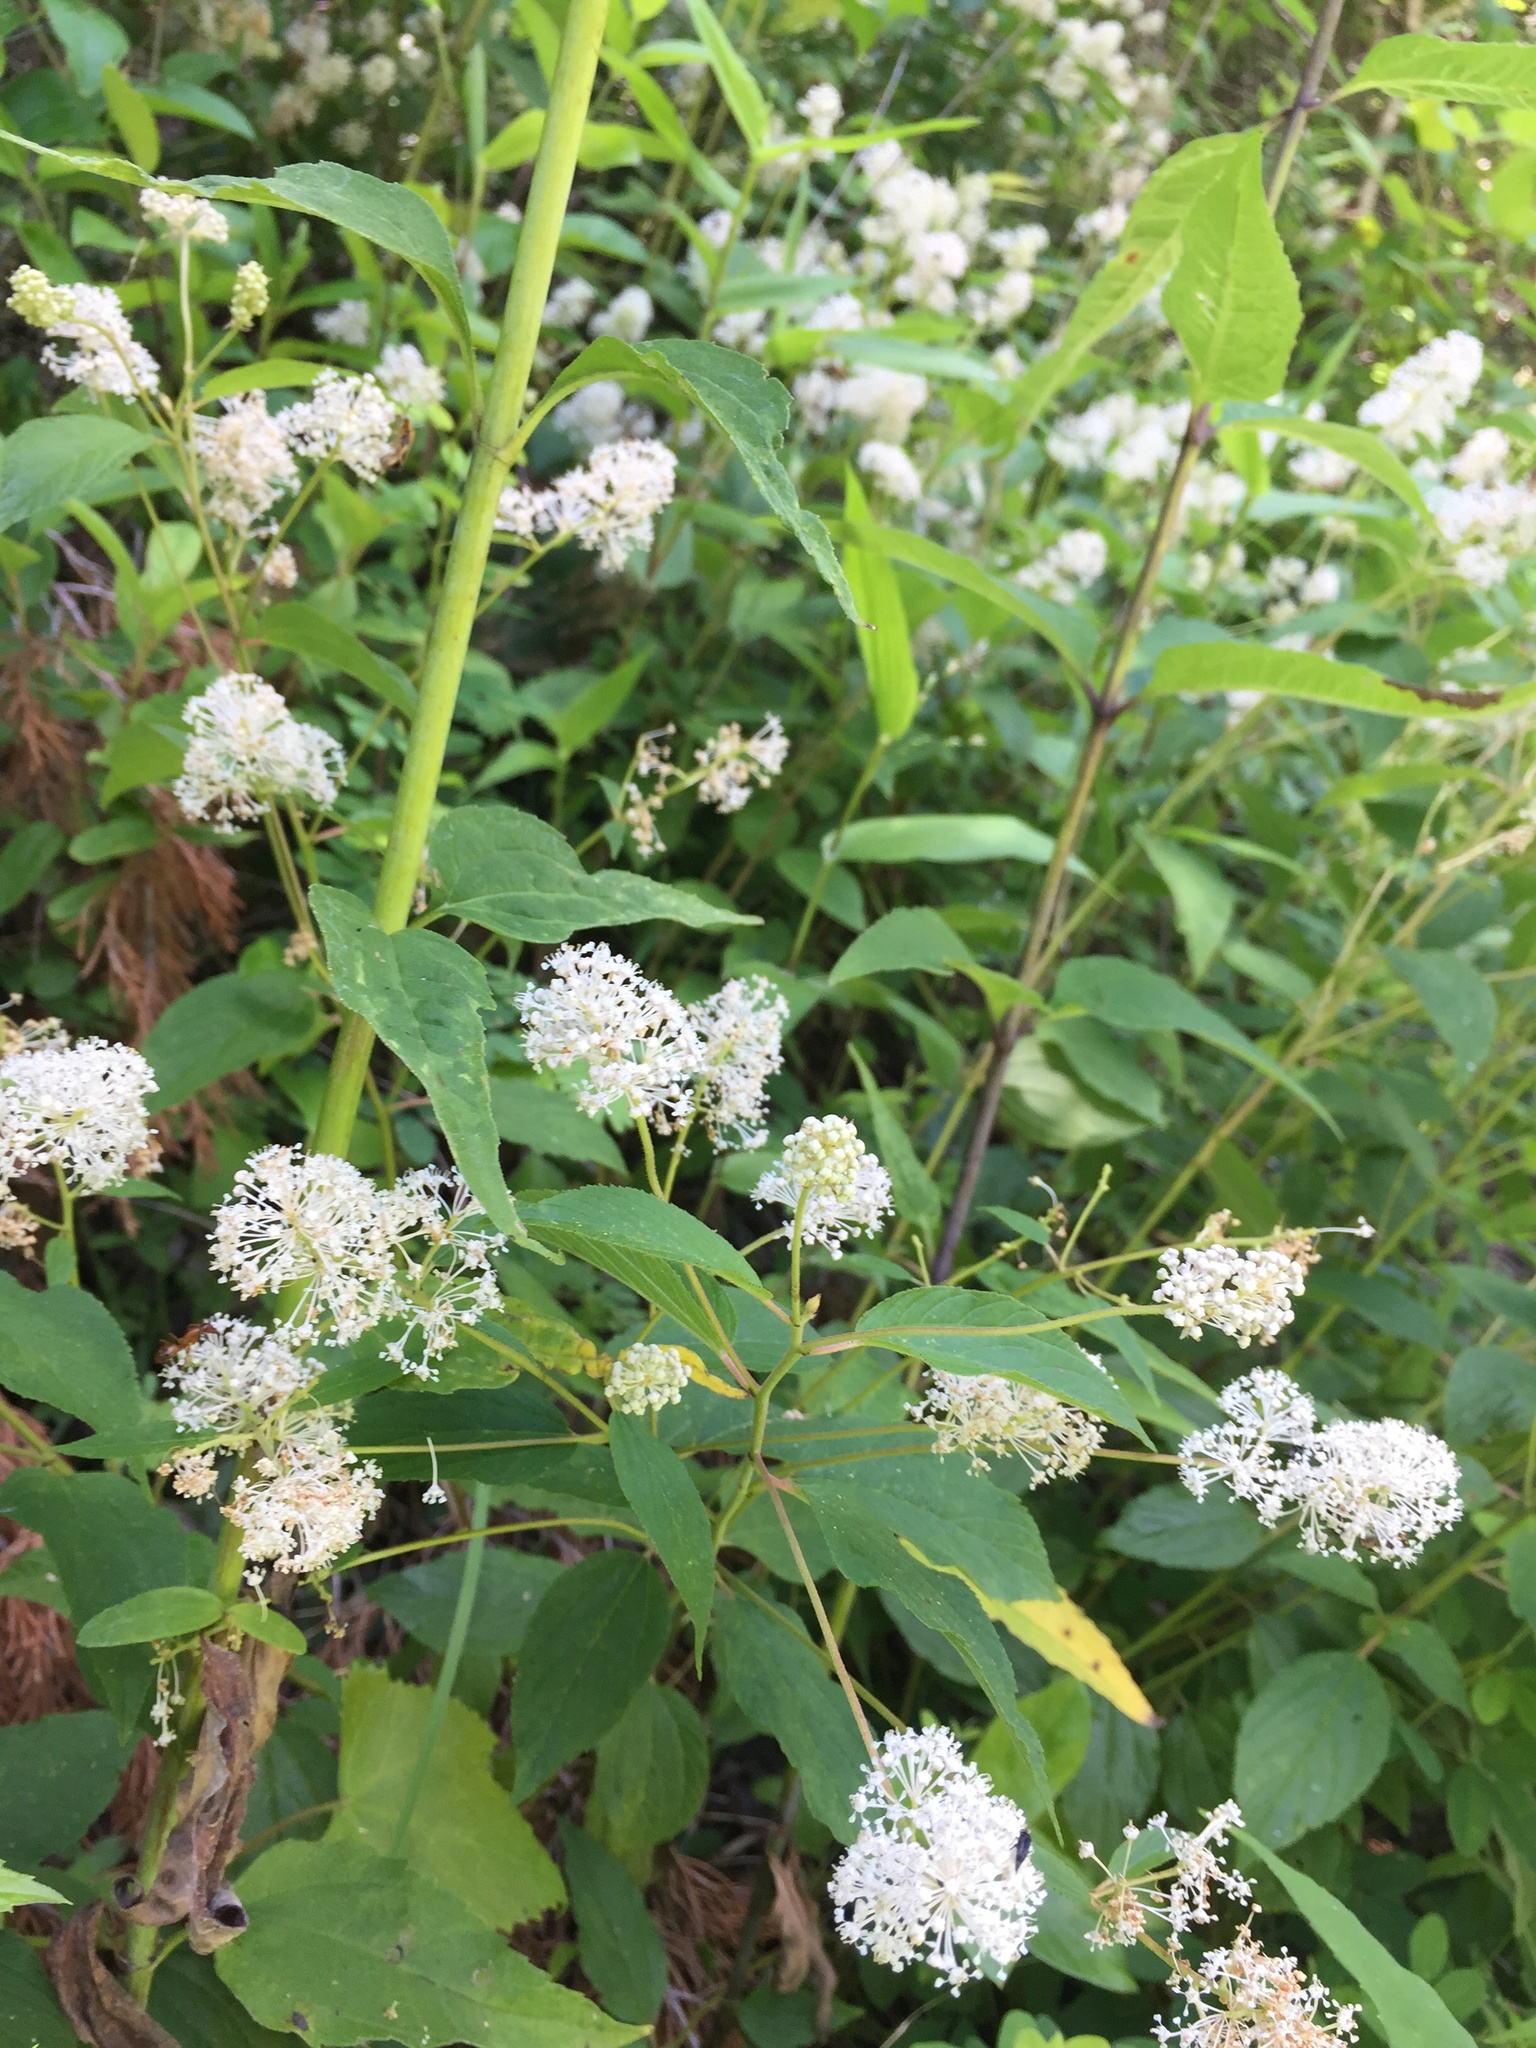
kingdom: Plantae
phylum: Tracheophyta
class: Magnoliopsida
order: Rosales
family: Rhamnaceae
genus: Ceanothus
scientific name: Ceanothus americanus
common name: Redroot
